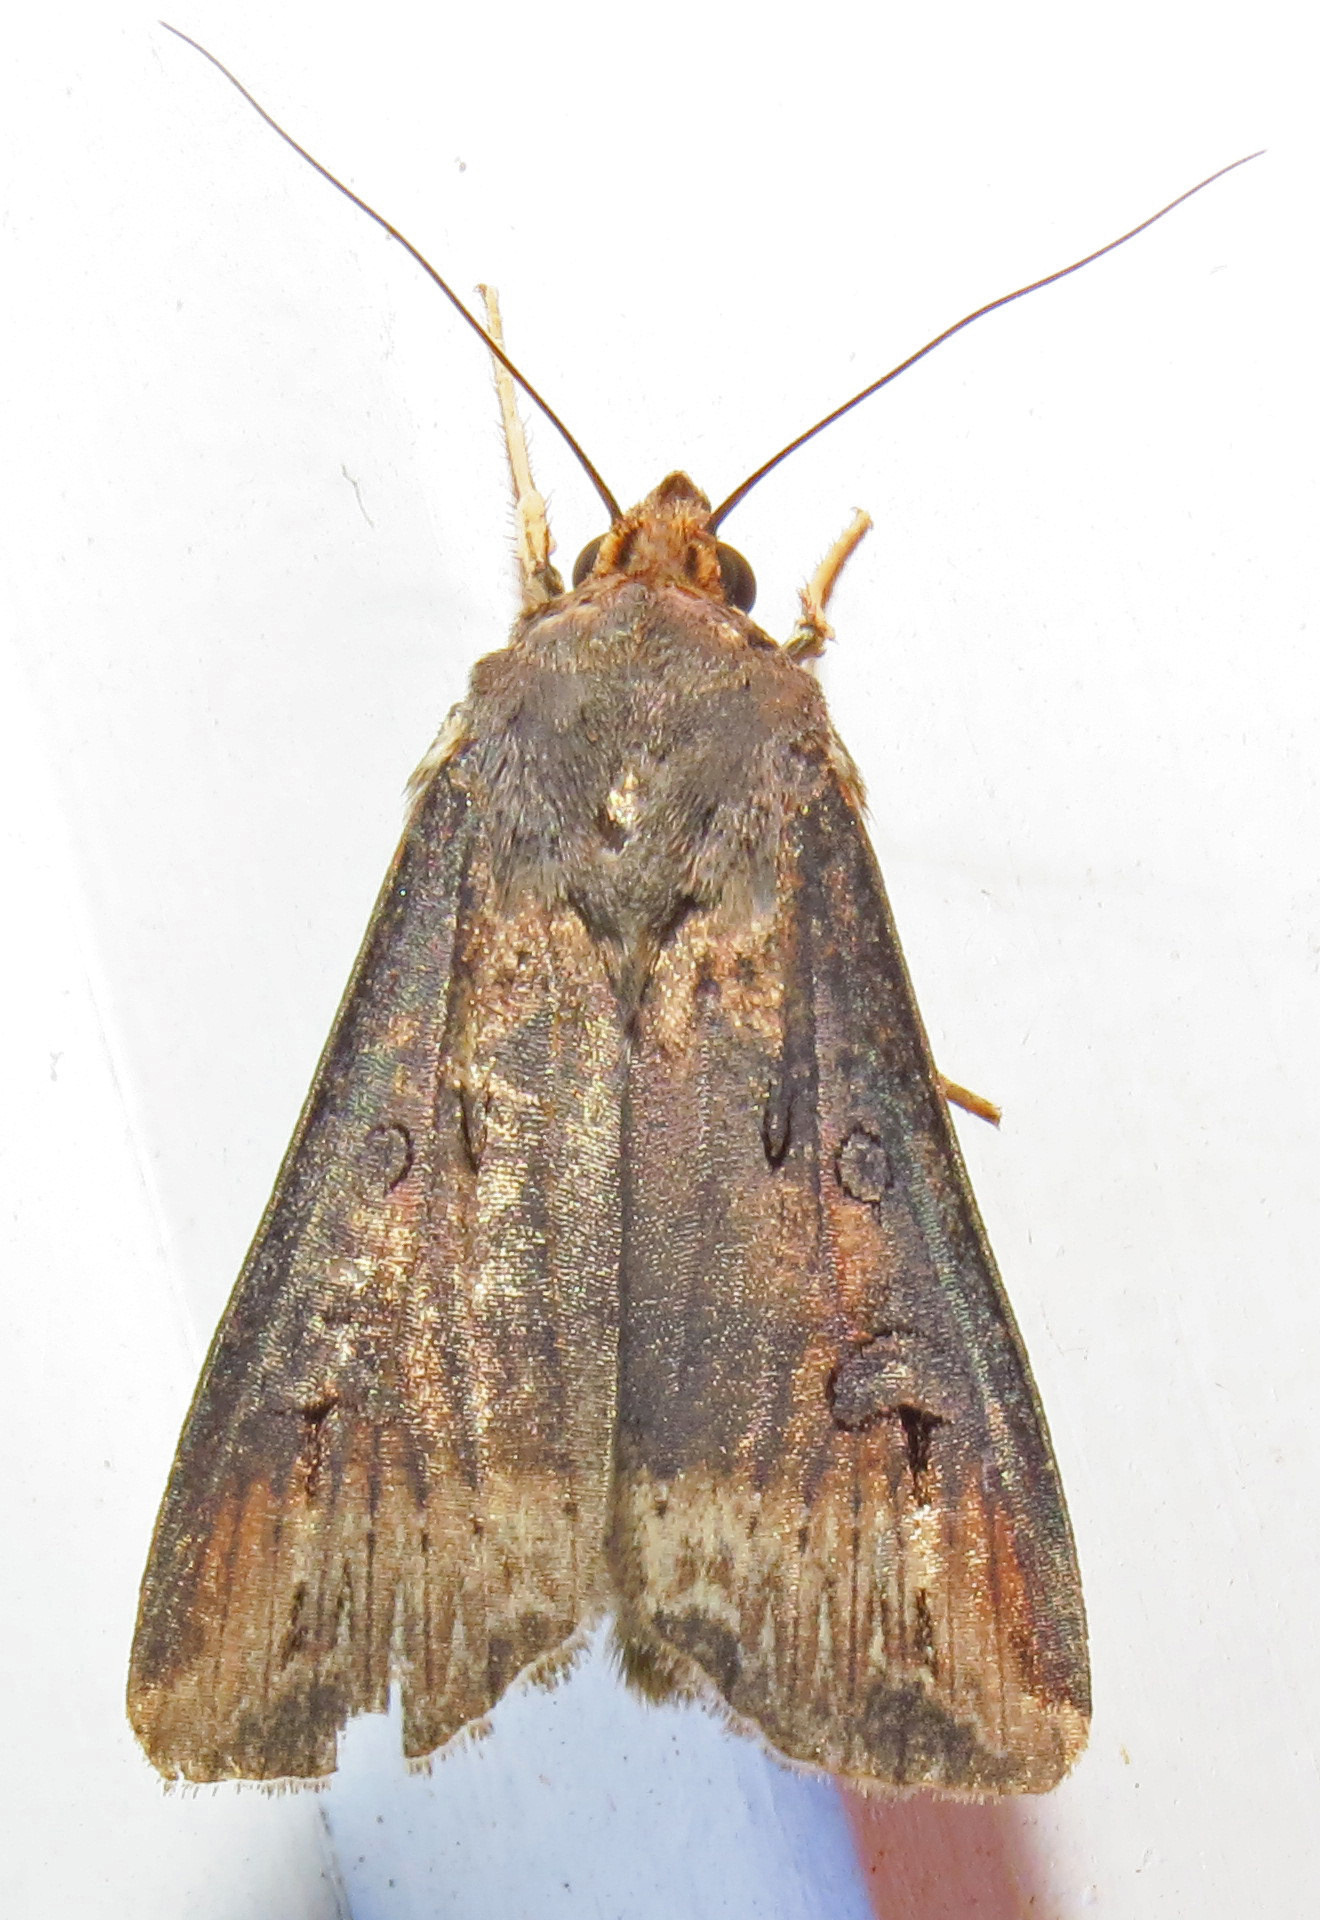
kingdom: Animalia
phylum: Arthropoda
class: Insecta
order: Lepidoptera
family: Noctuidae
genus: Agrotis
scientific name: Agrotis ipsilon
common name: Dark sword-grass
